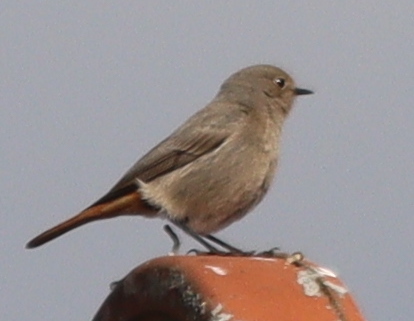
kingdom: Animalia
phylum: Chordata
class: Aves
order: Passeriformes
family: Muscicapidae
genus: Phoenicurus
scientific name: Phoenicurus ochruros
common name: Black redstart
